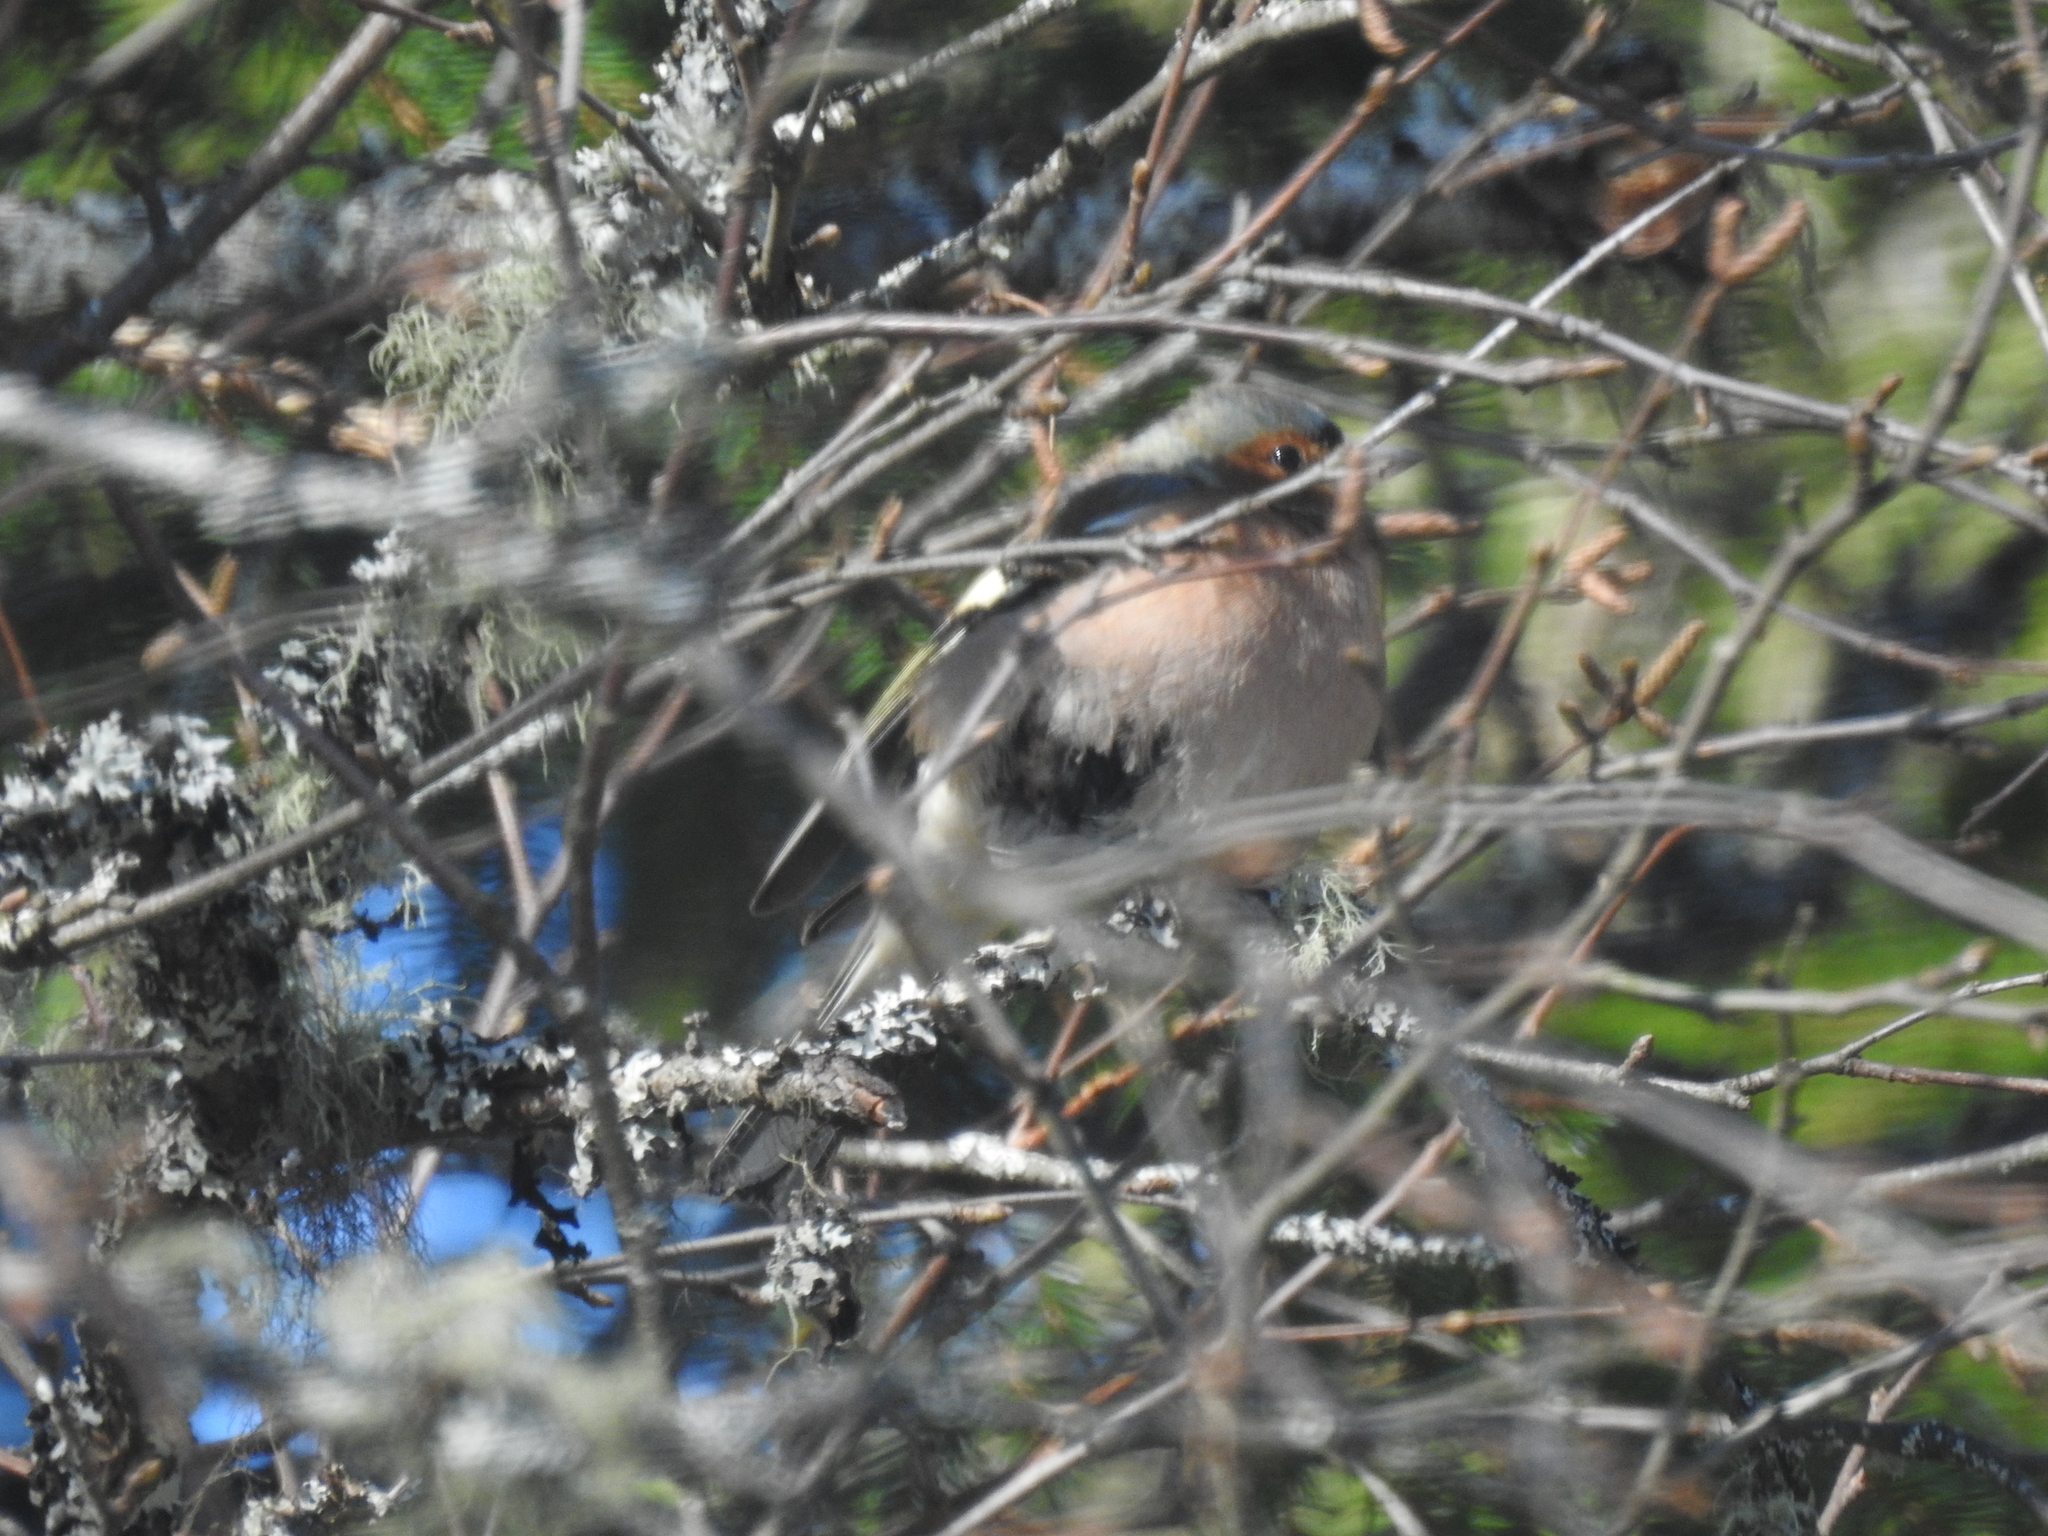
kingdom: Animalia
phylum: Chordata
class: Aves
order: Passeriformes
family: Fringillidae
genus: Fringilla
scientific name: Fringilla coelebs
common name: Common chaffinch
